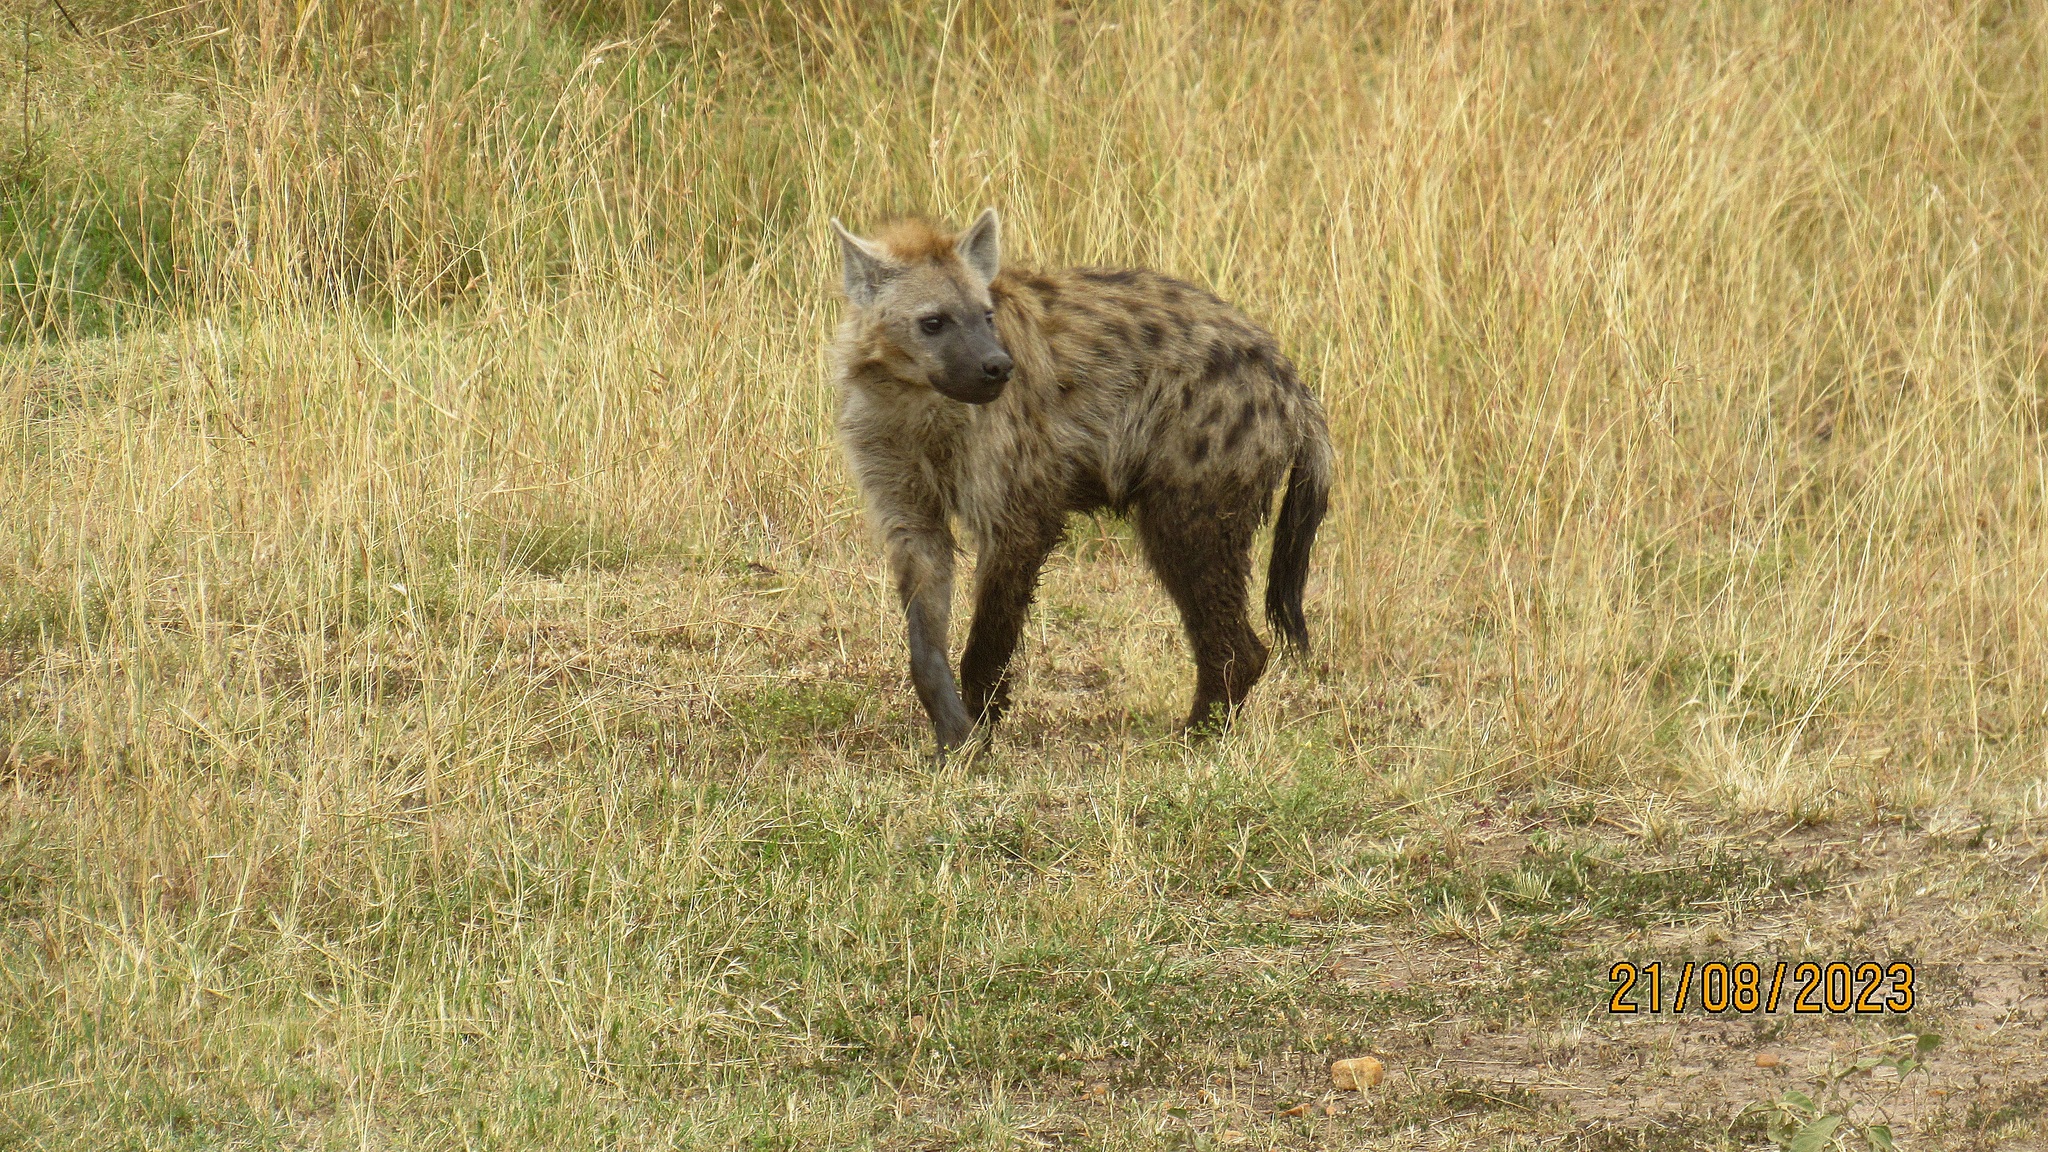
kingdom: Animalia
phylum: Chordata
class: Mammalia
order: Carnivora
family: Hyaenidae
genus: Crocuta
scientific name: Crocuta crocuta
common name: Spotted hyaena
